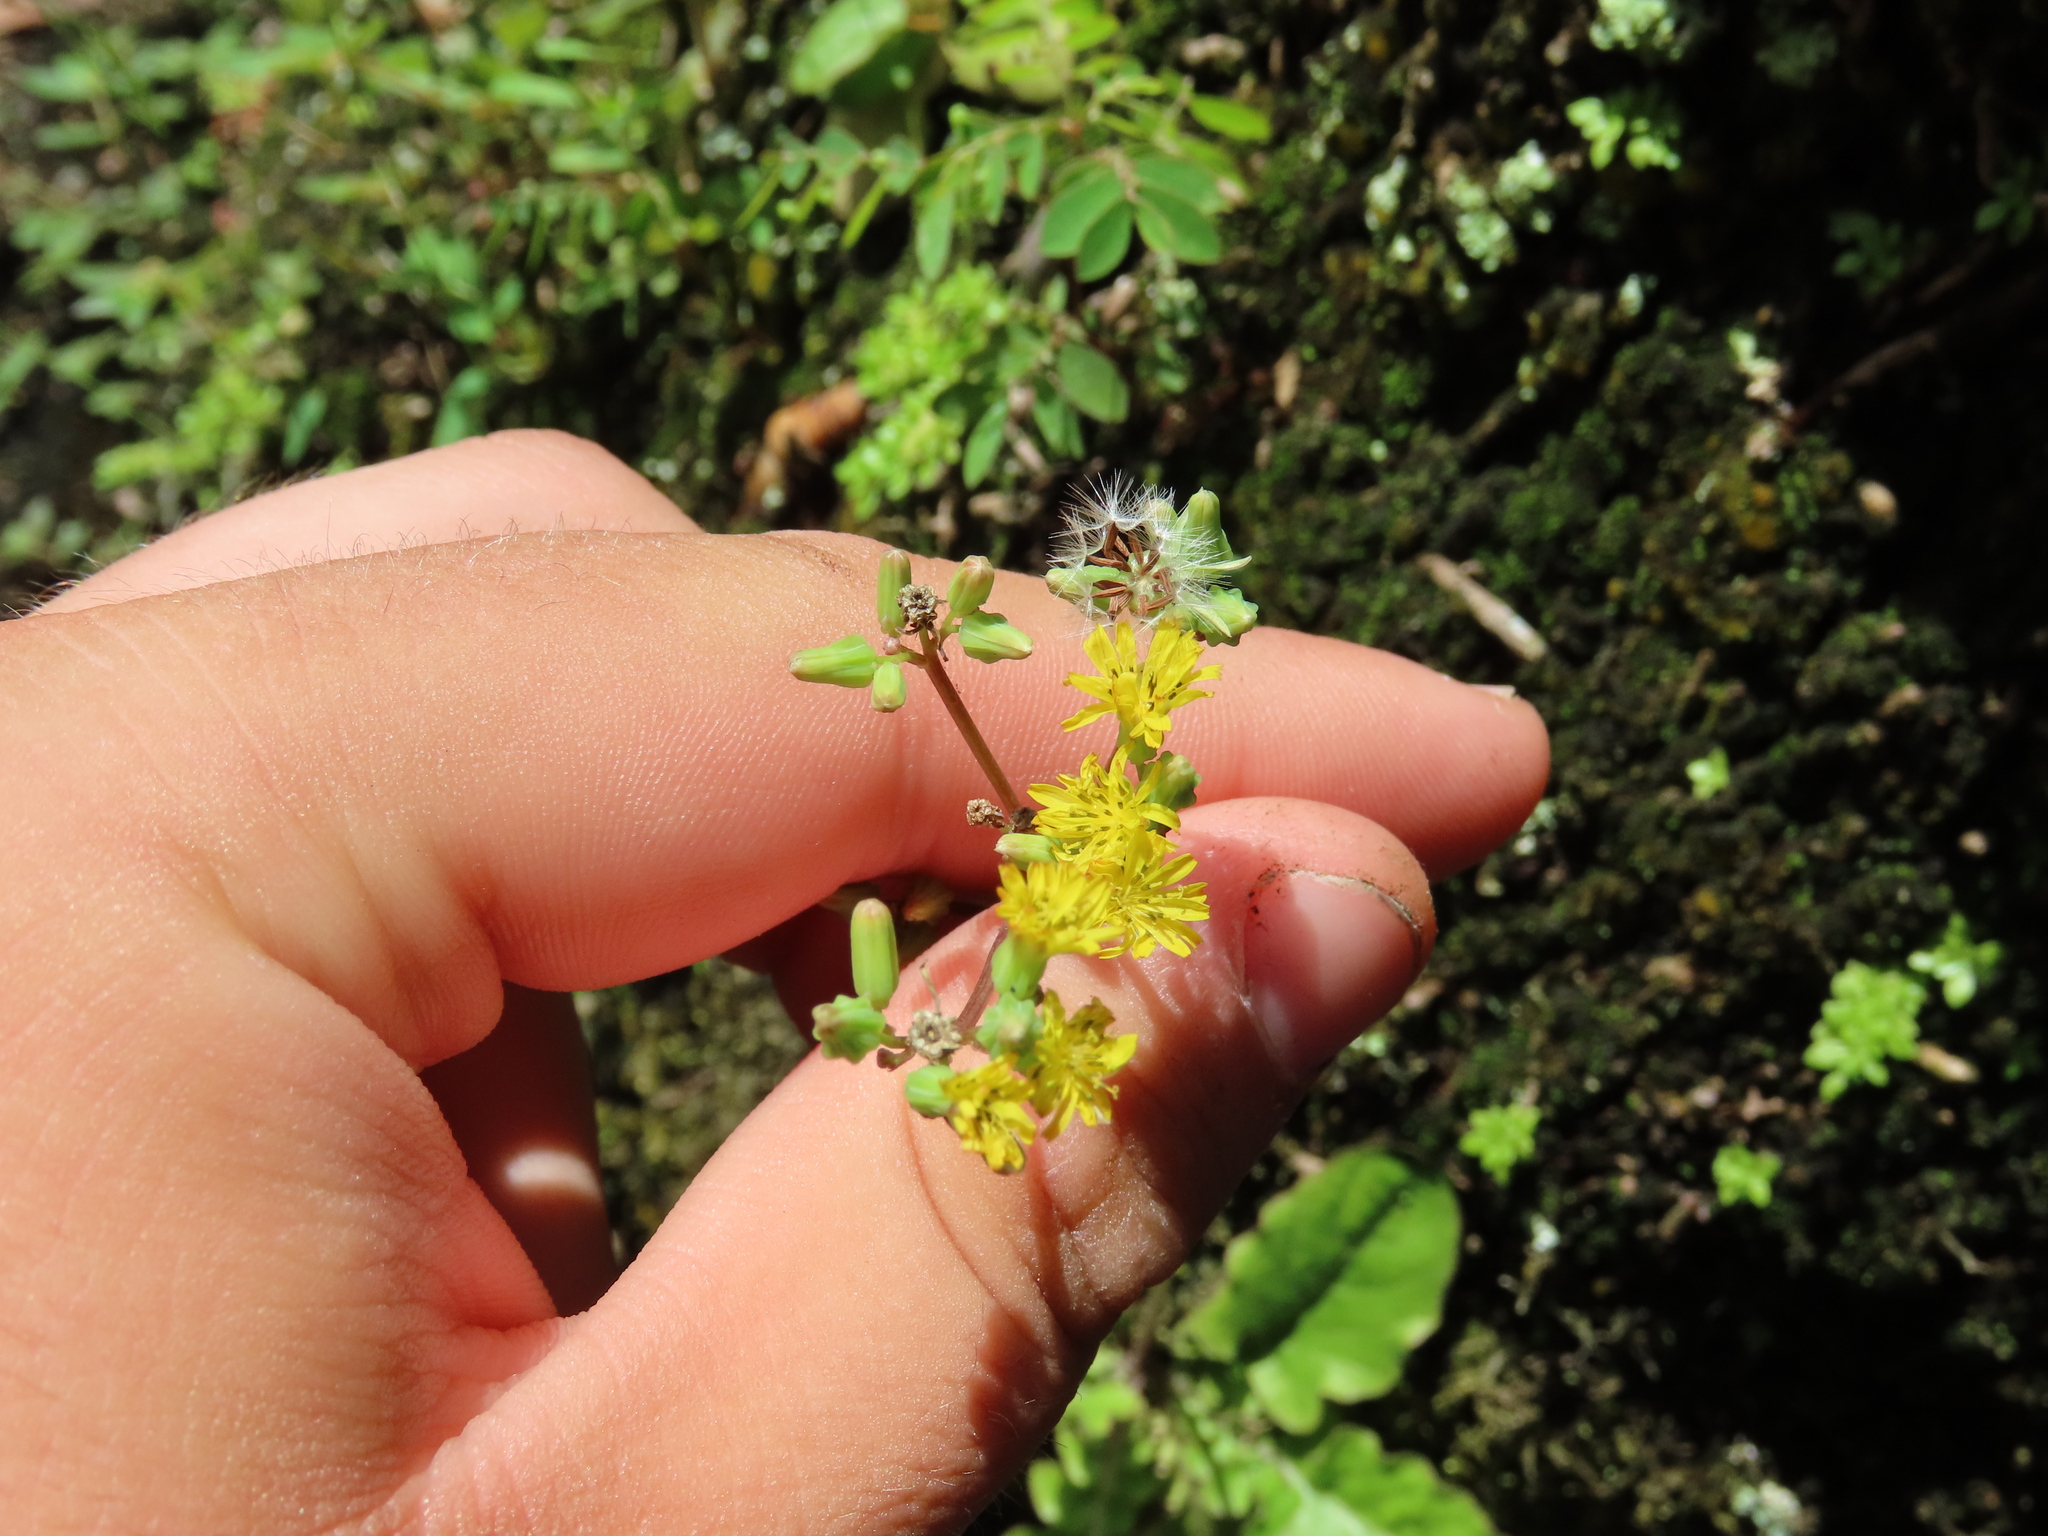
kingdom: Plantae
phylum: Tracheophyta
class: Magnoliopsida
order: Asterales
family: Asteraceae
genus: Youngia
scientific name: Youngia japonica
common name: Oriental false hawksbeard
